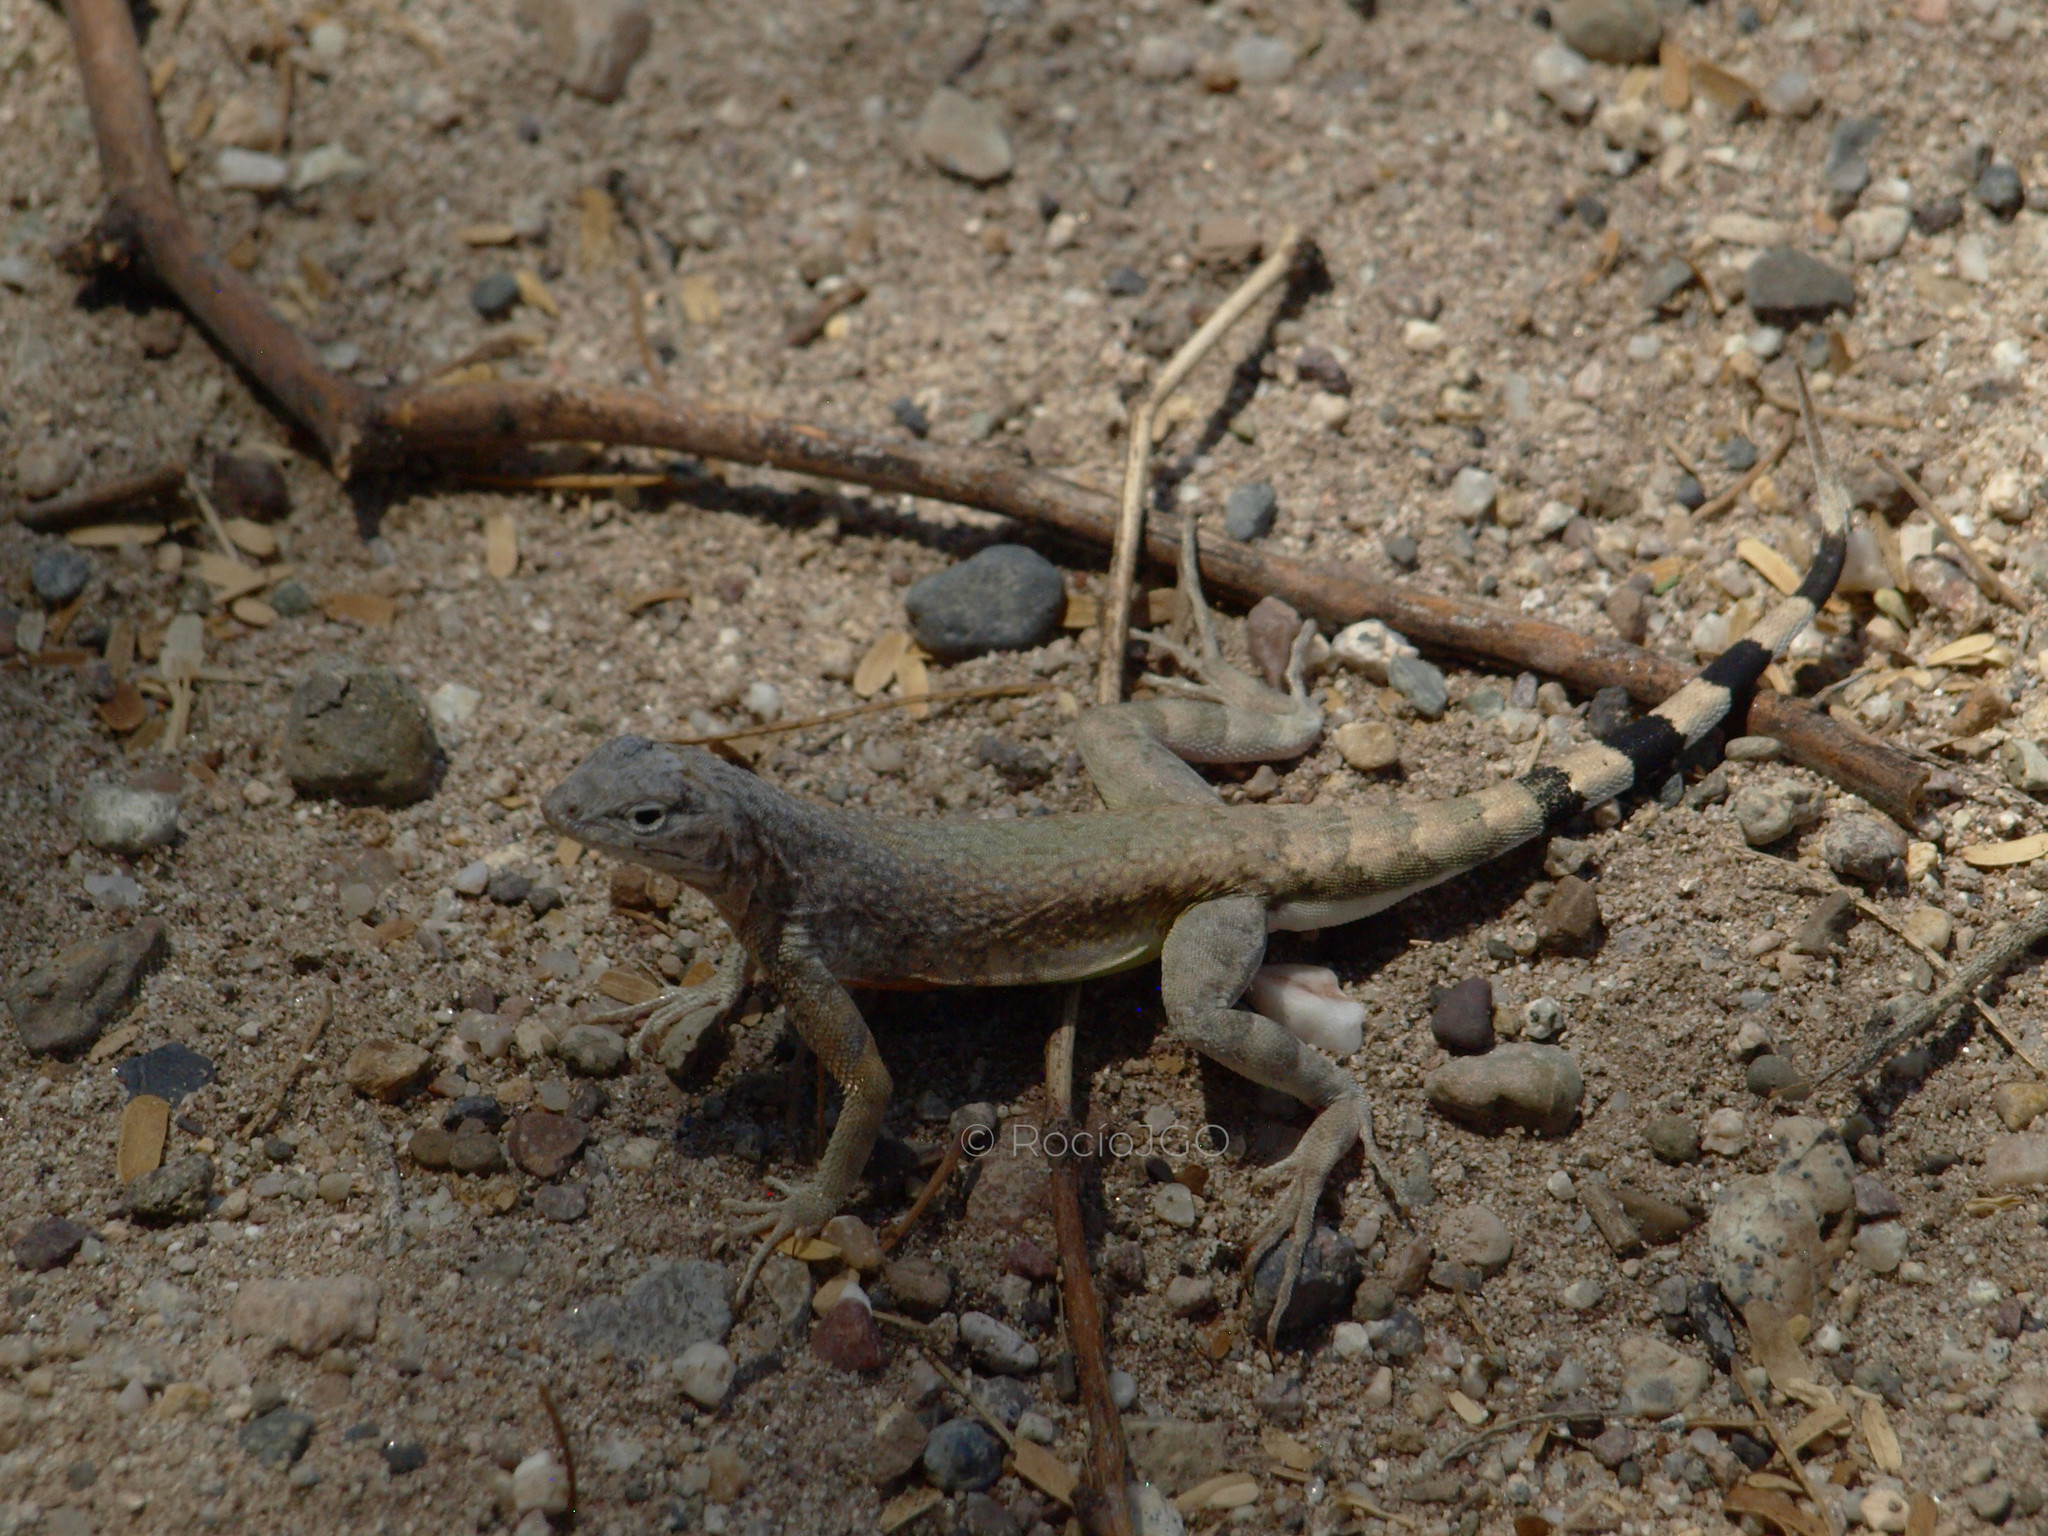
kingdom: Animalia
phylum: Chordata
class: Squamata
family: Phrynosomatidae
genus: Callisaurus
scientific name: Callisaurus draconoides
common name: Zebra-tailed lizard
